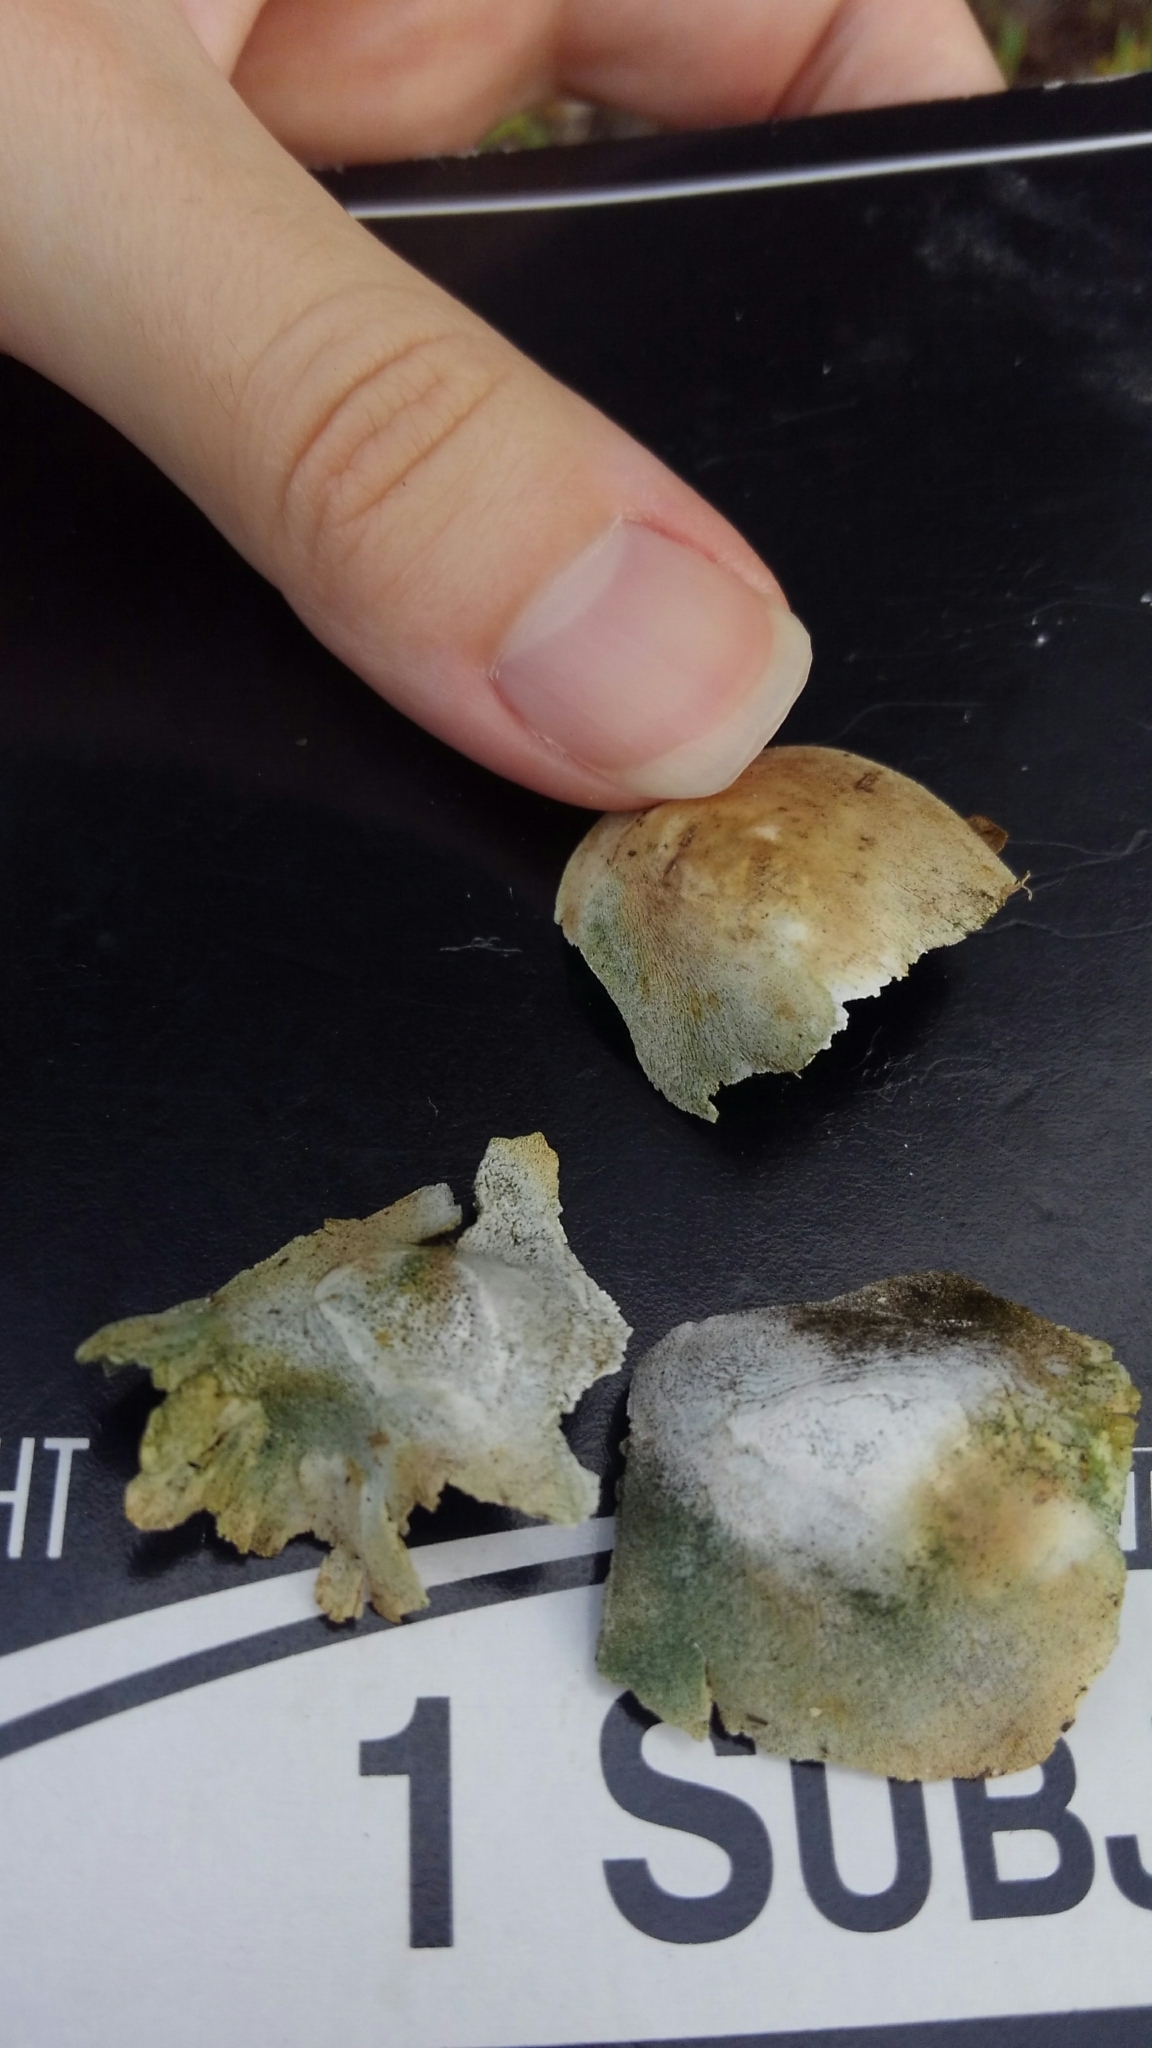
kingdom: Animalia
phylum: Chordata
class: Mammalia
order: Carnivora
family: Canidae
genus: Urocyon
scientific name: Urocyon cinereoargenteus
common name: Gray fox
